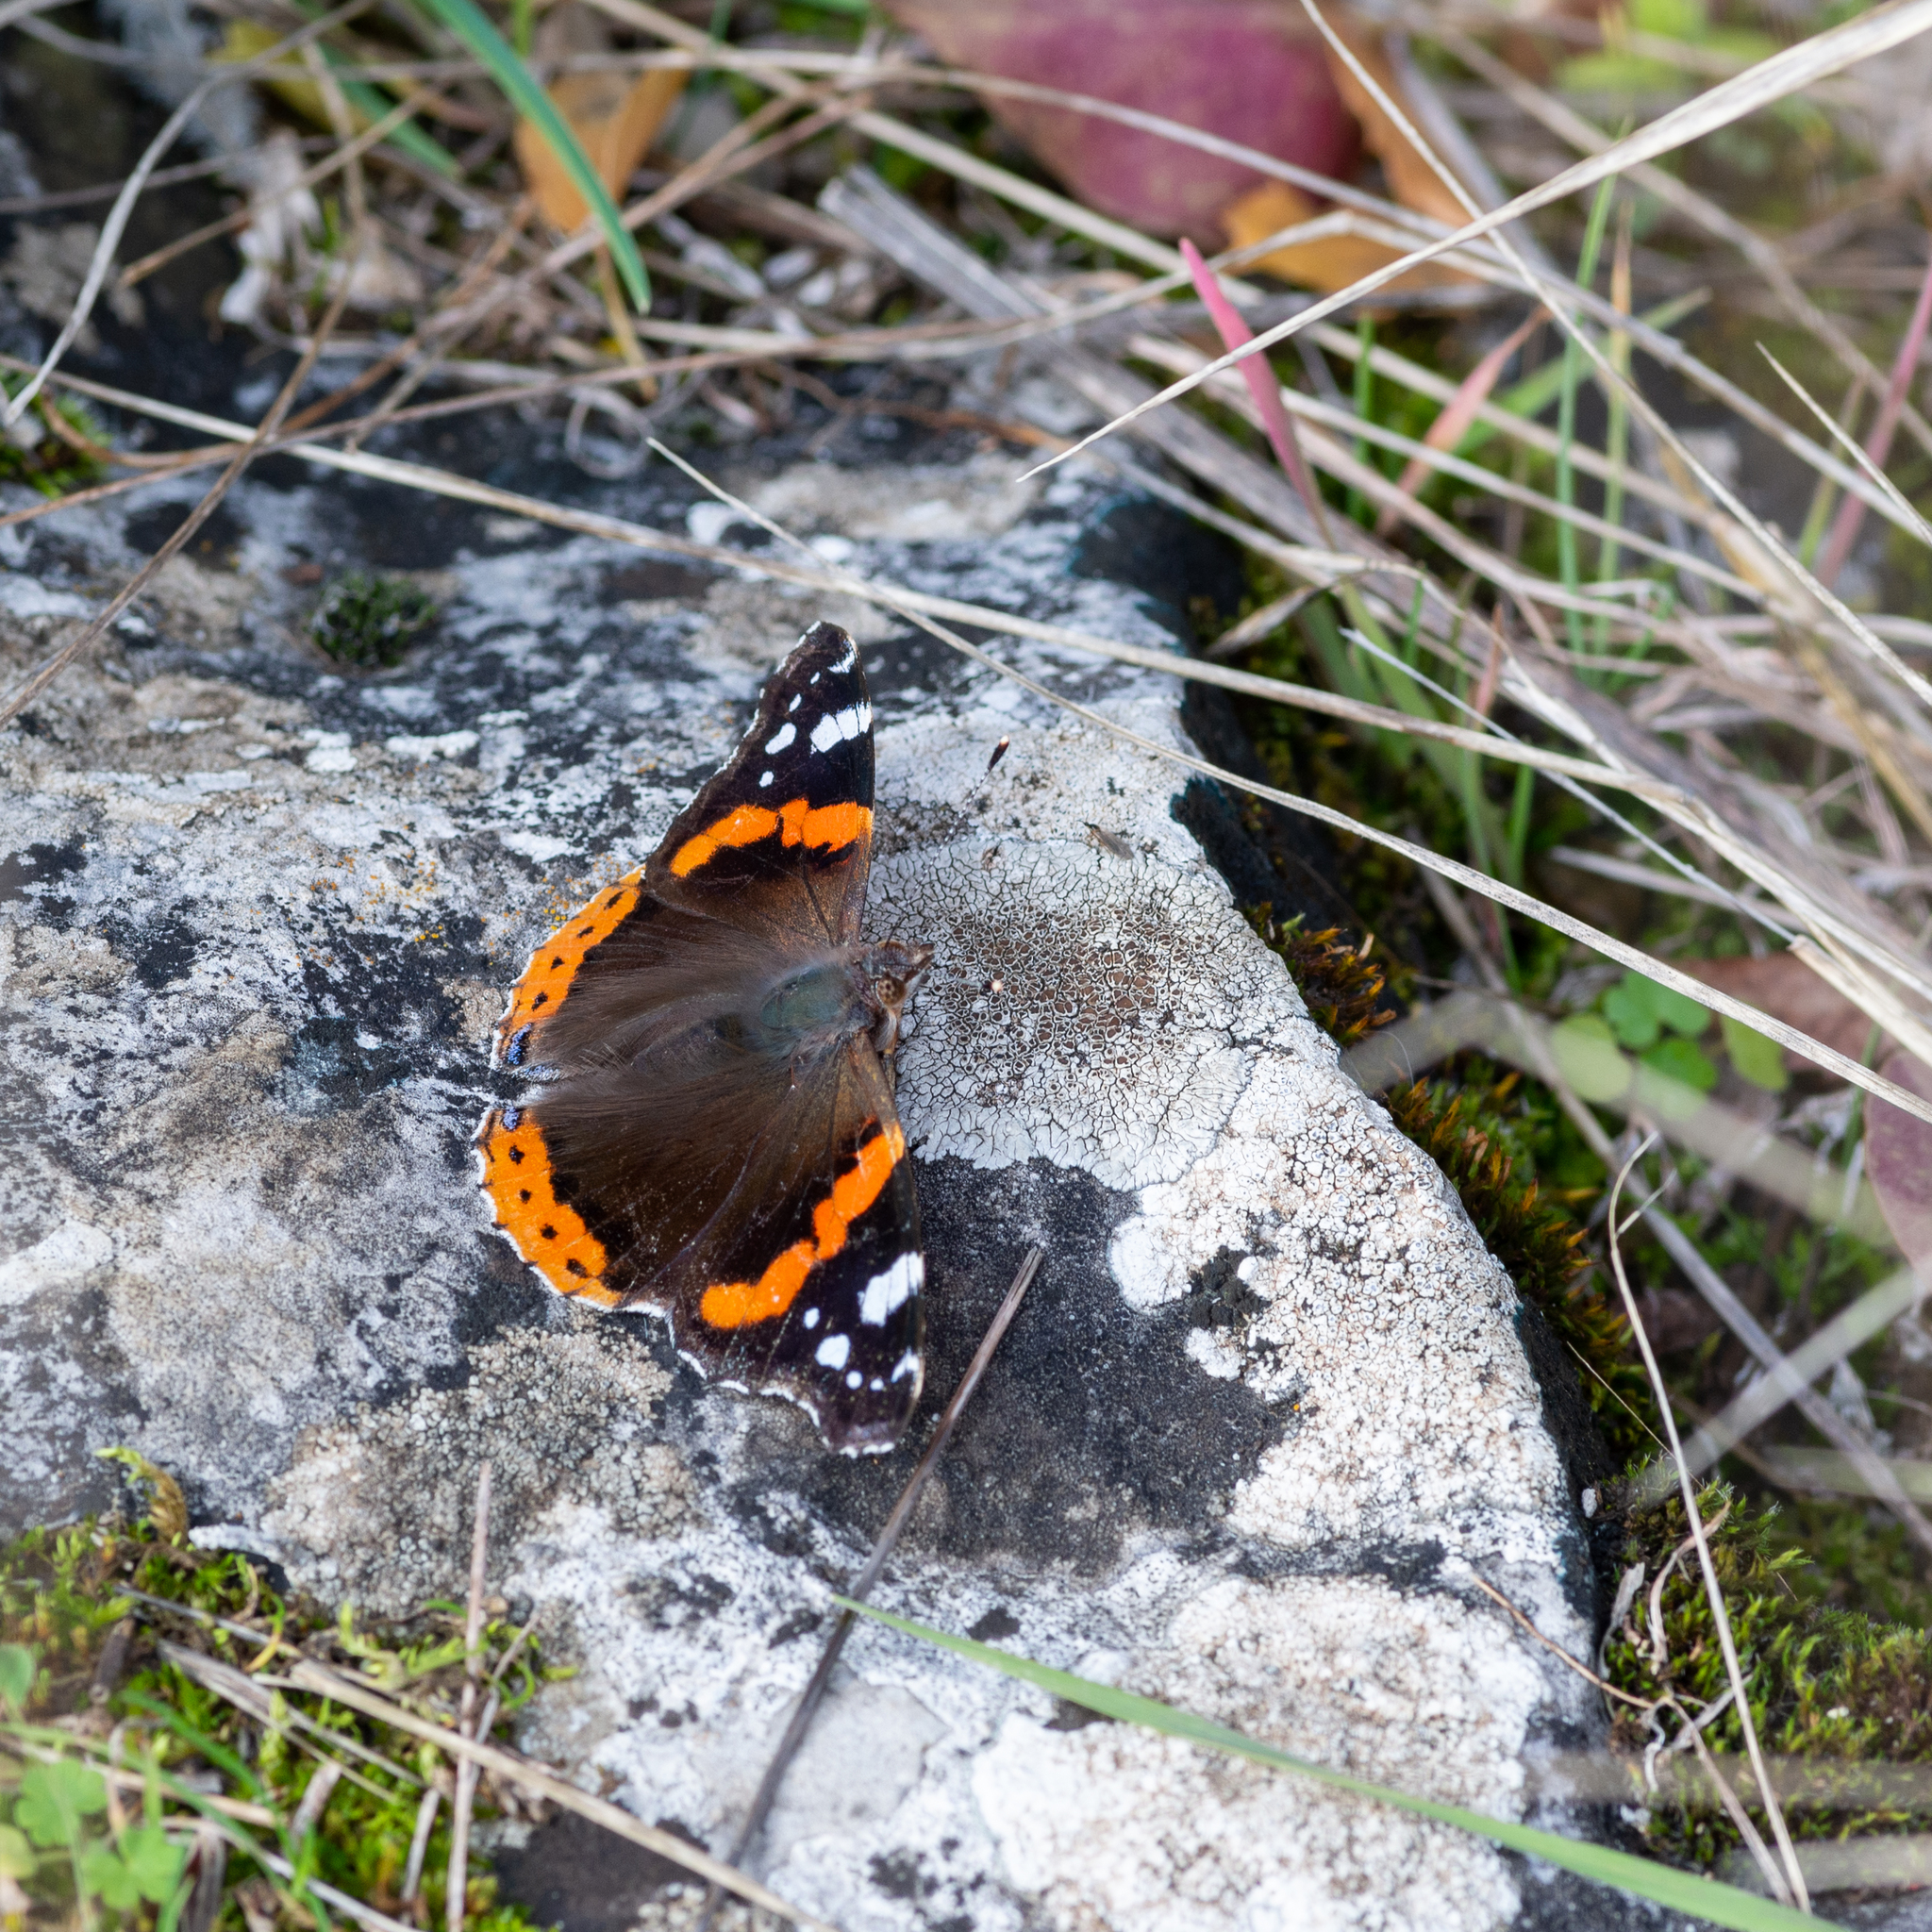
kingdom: Animalia
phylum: Arthropoda
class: Insecta
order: Lepidoptera
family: Nymphalidae
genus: Vanessa
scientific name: Vanessa atalanta
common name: Red admiral
